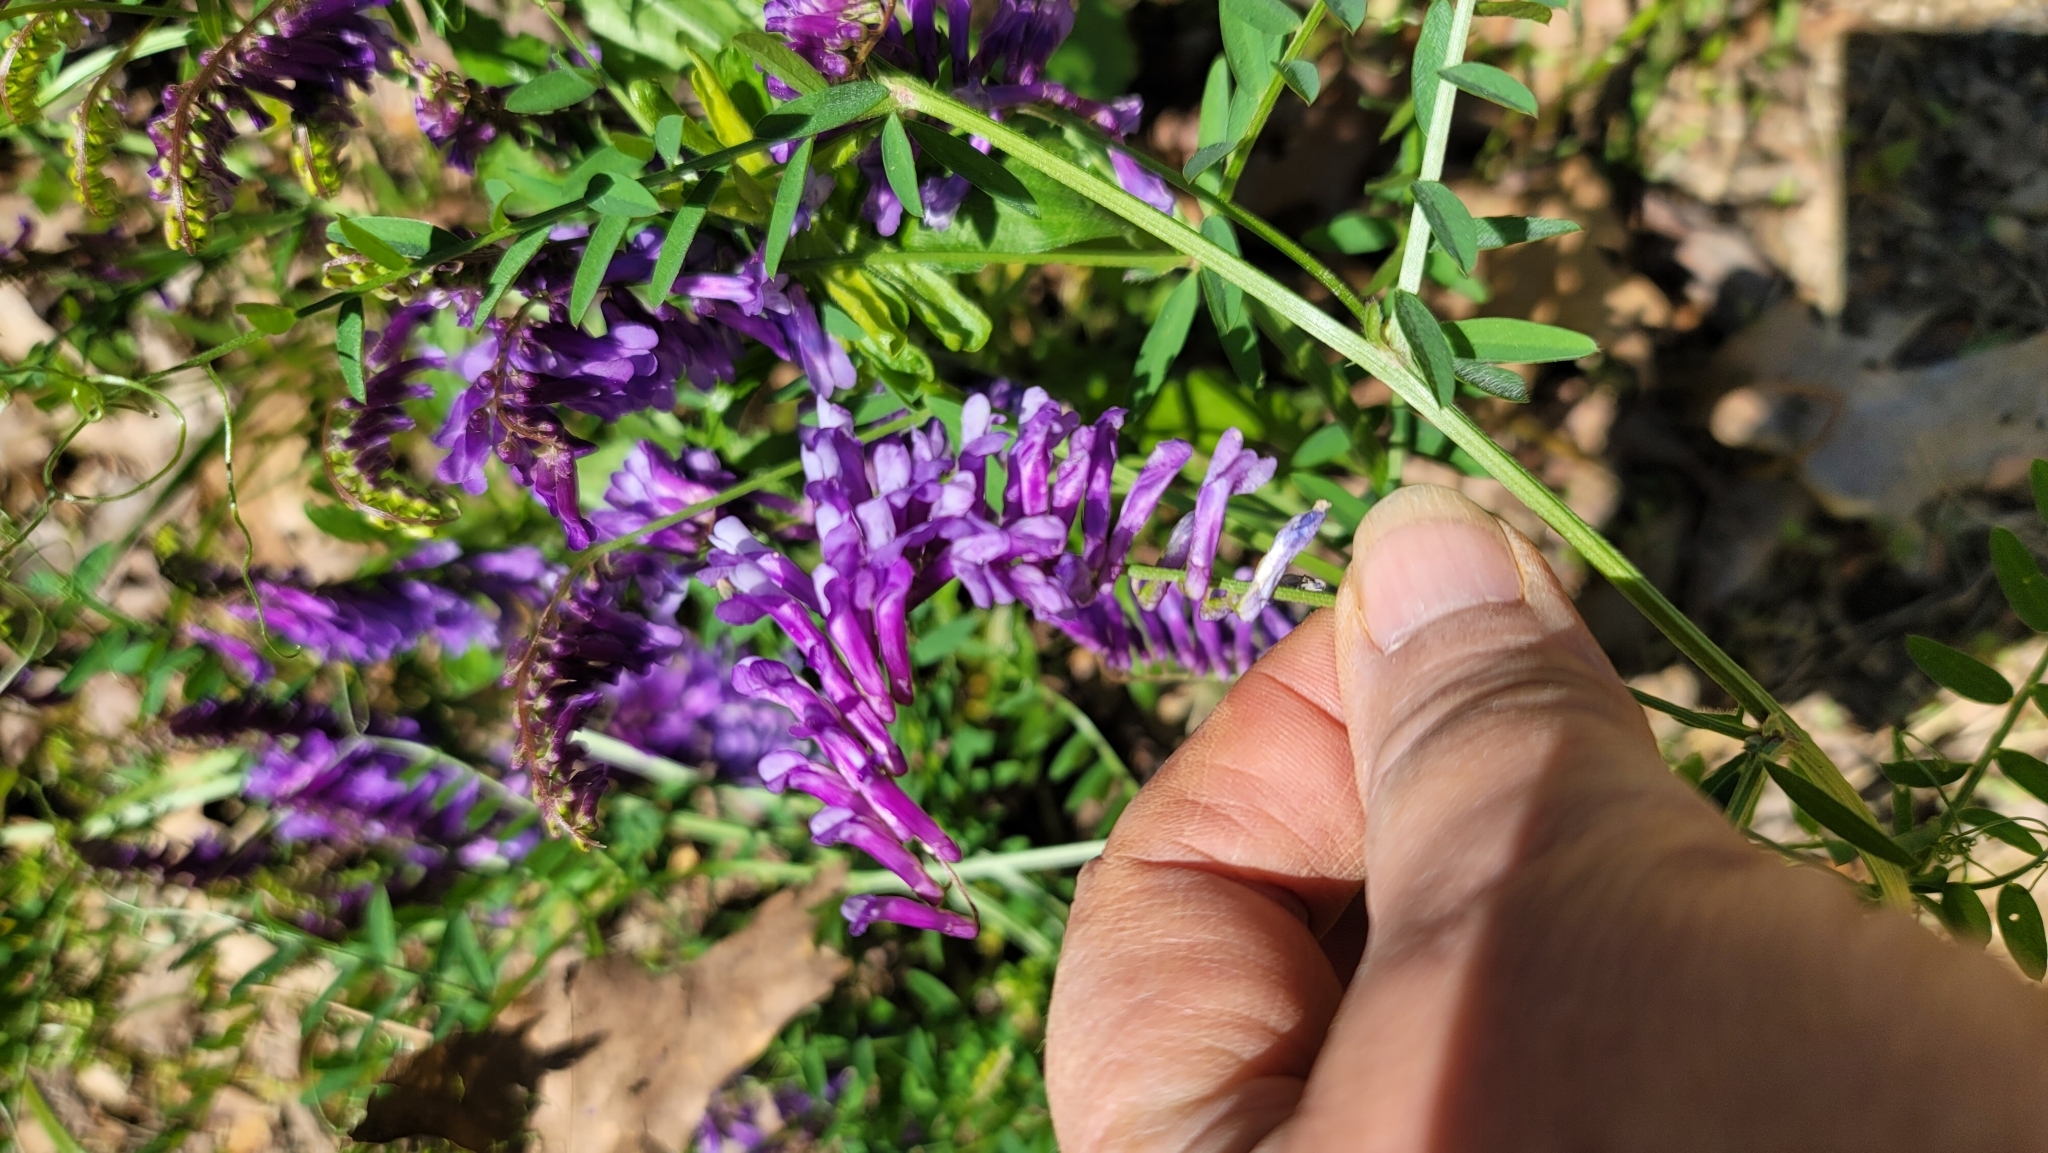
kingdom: Plantae
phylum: Tracheophyta
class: Magnoliopsida
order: Fabales
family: Fabaceae
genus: Vicia
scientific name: Vicia villosa
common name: Fodder vetch
